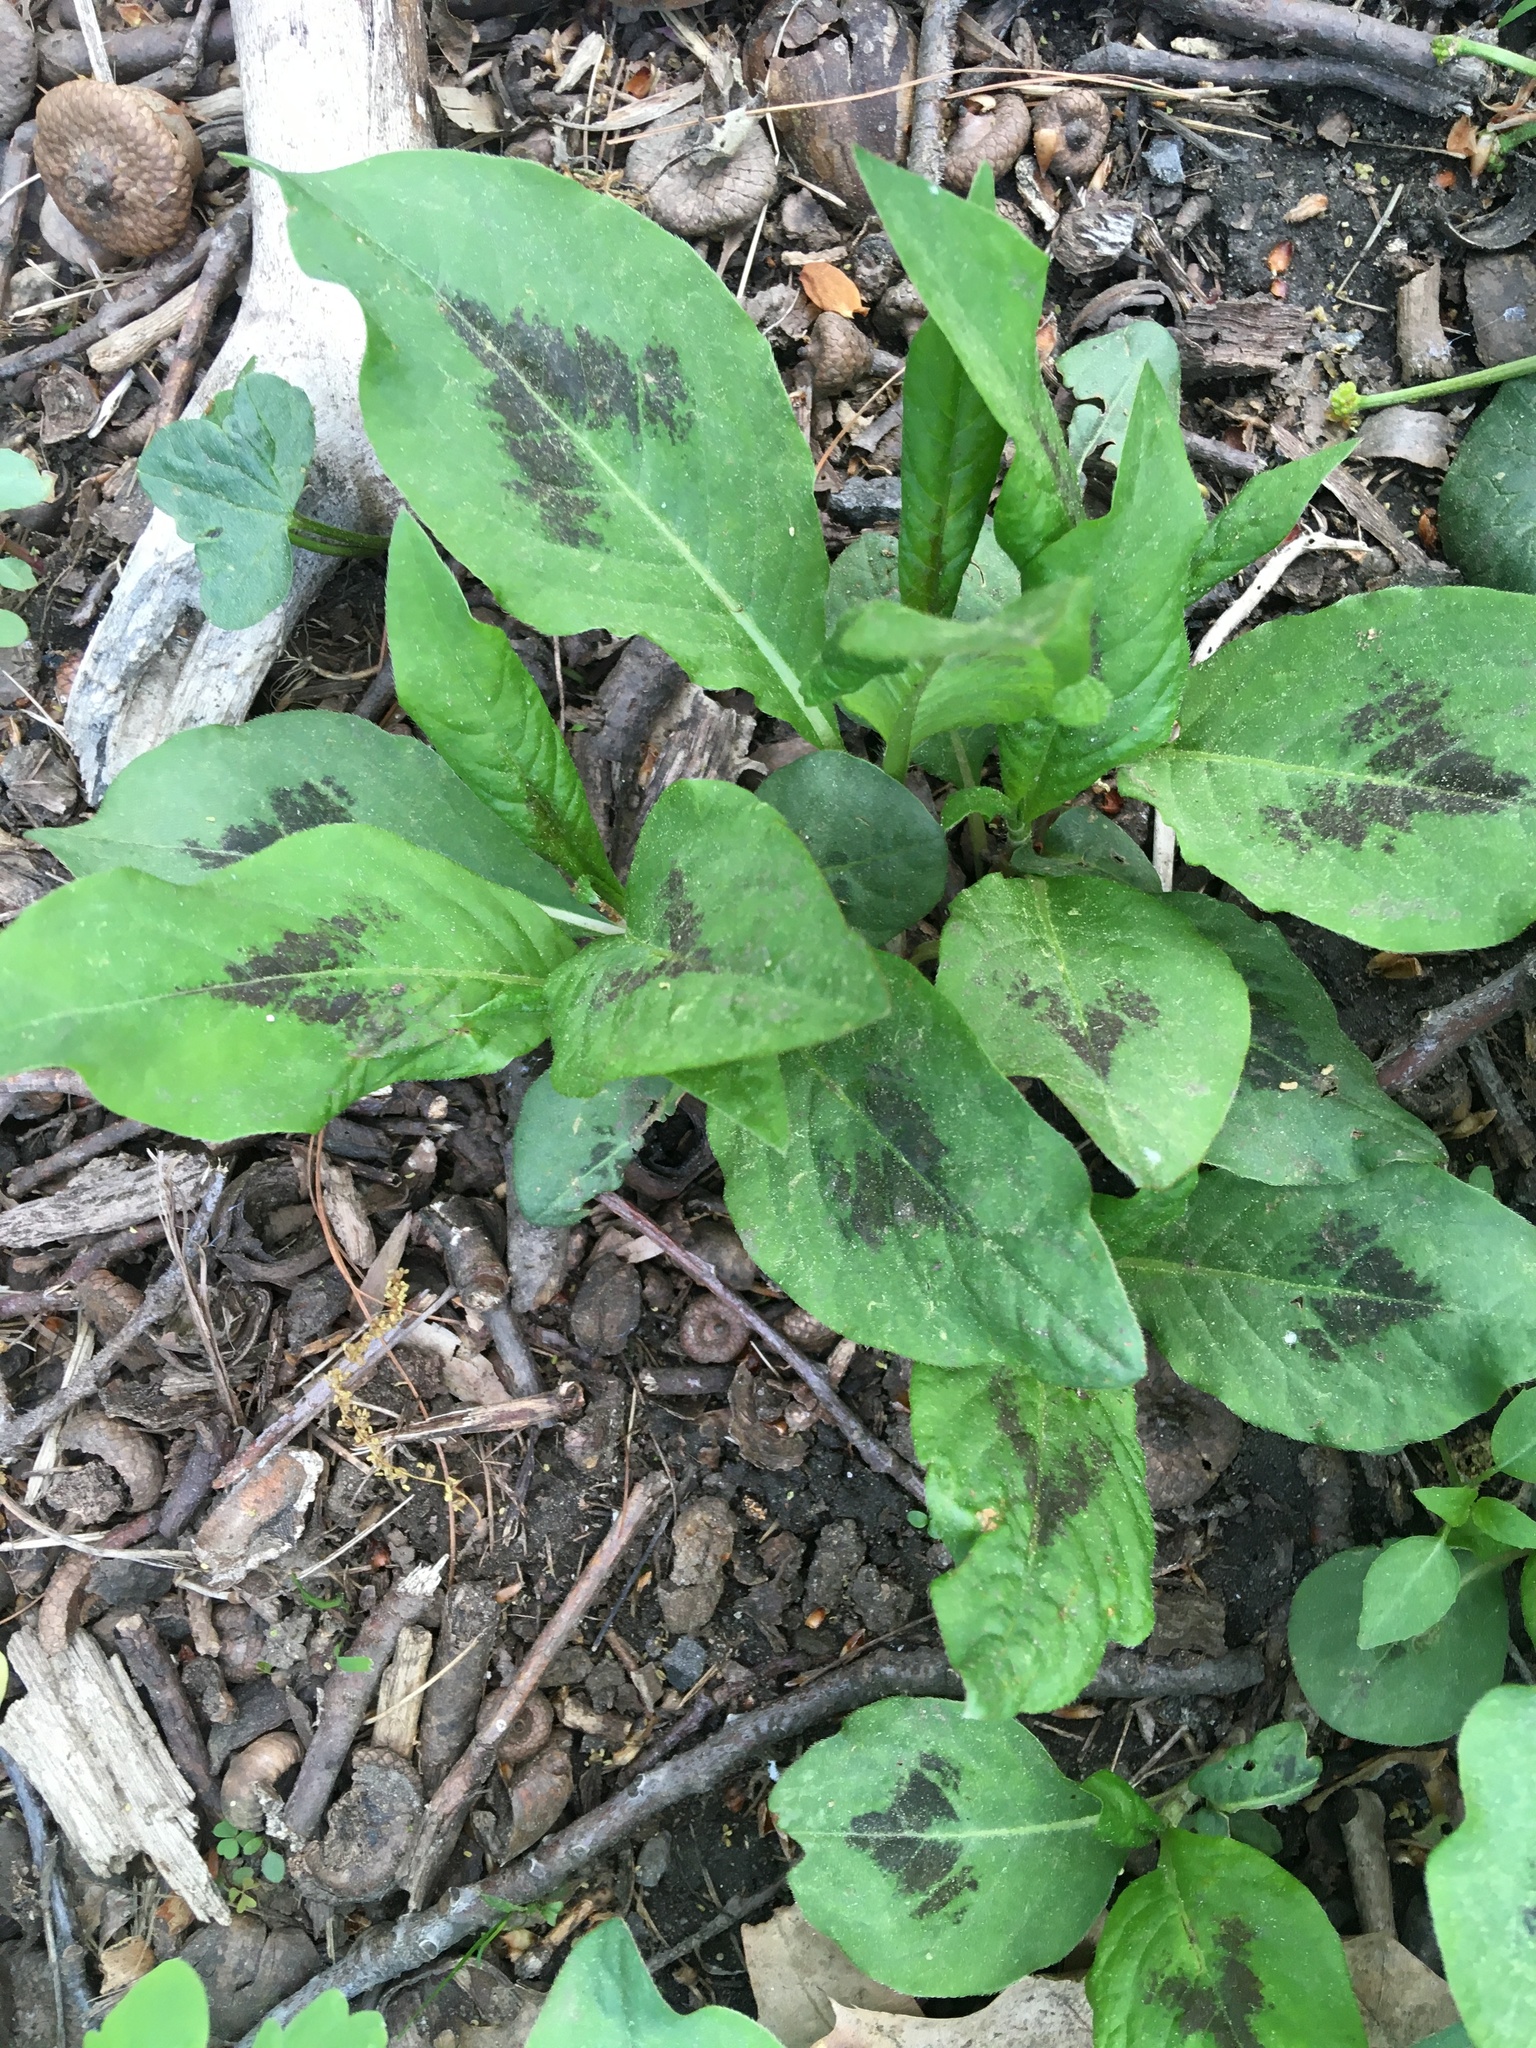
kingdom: Plantae
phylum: Tracheophyta
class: Magnoliopsida
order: Caryophyllales
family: Polygonaceae
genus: Persicaria
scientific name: Persicaria virginiana
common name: Jumpseed
